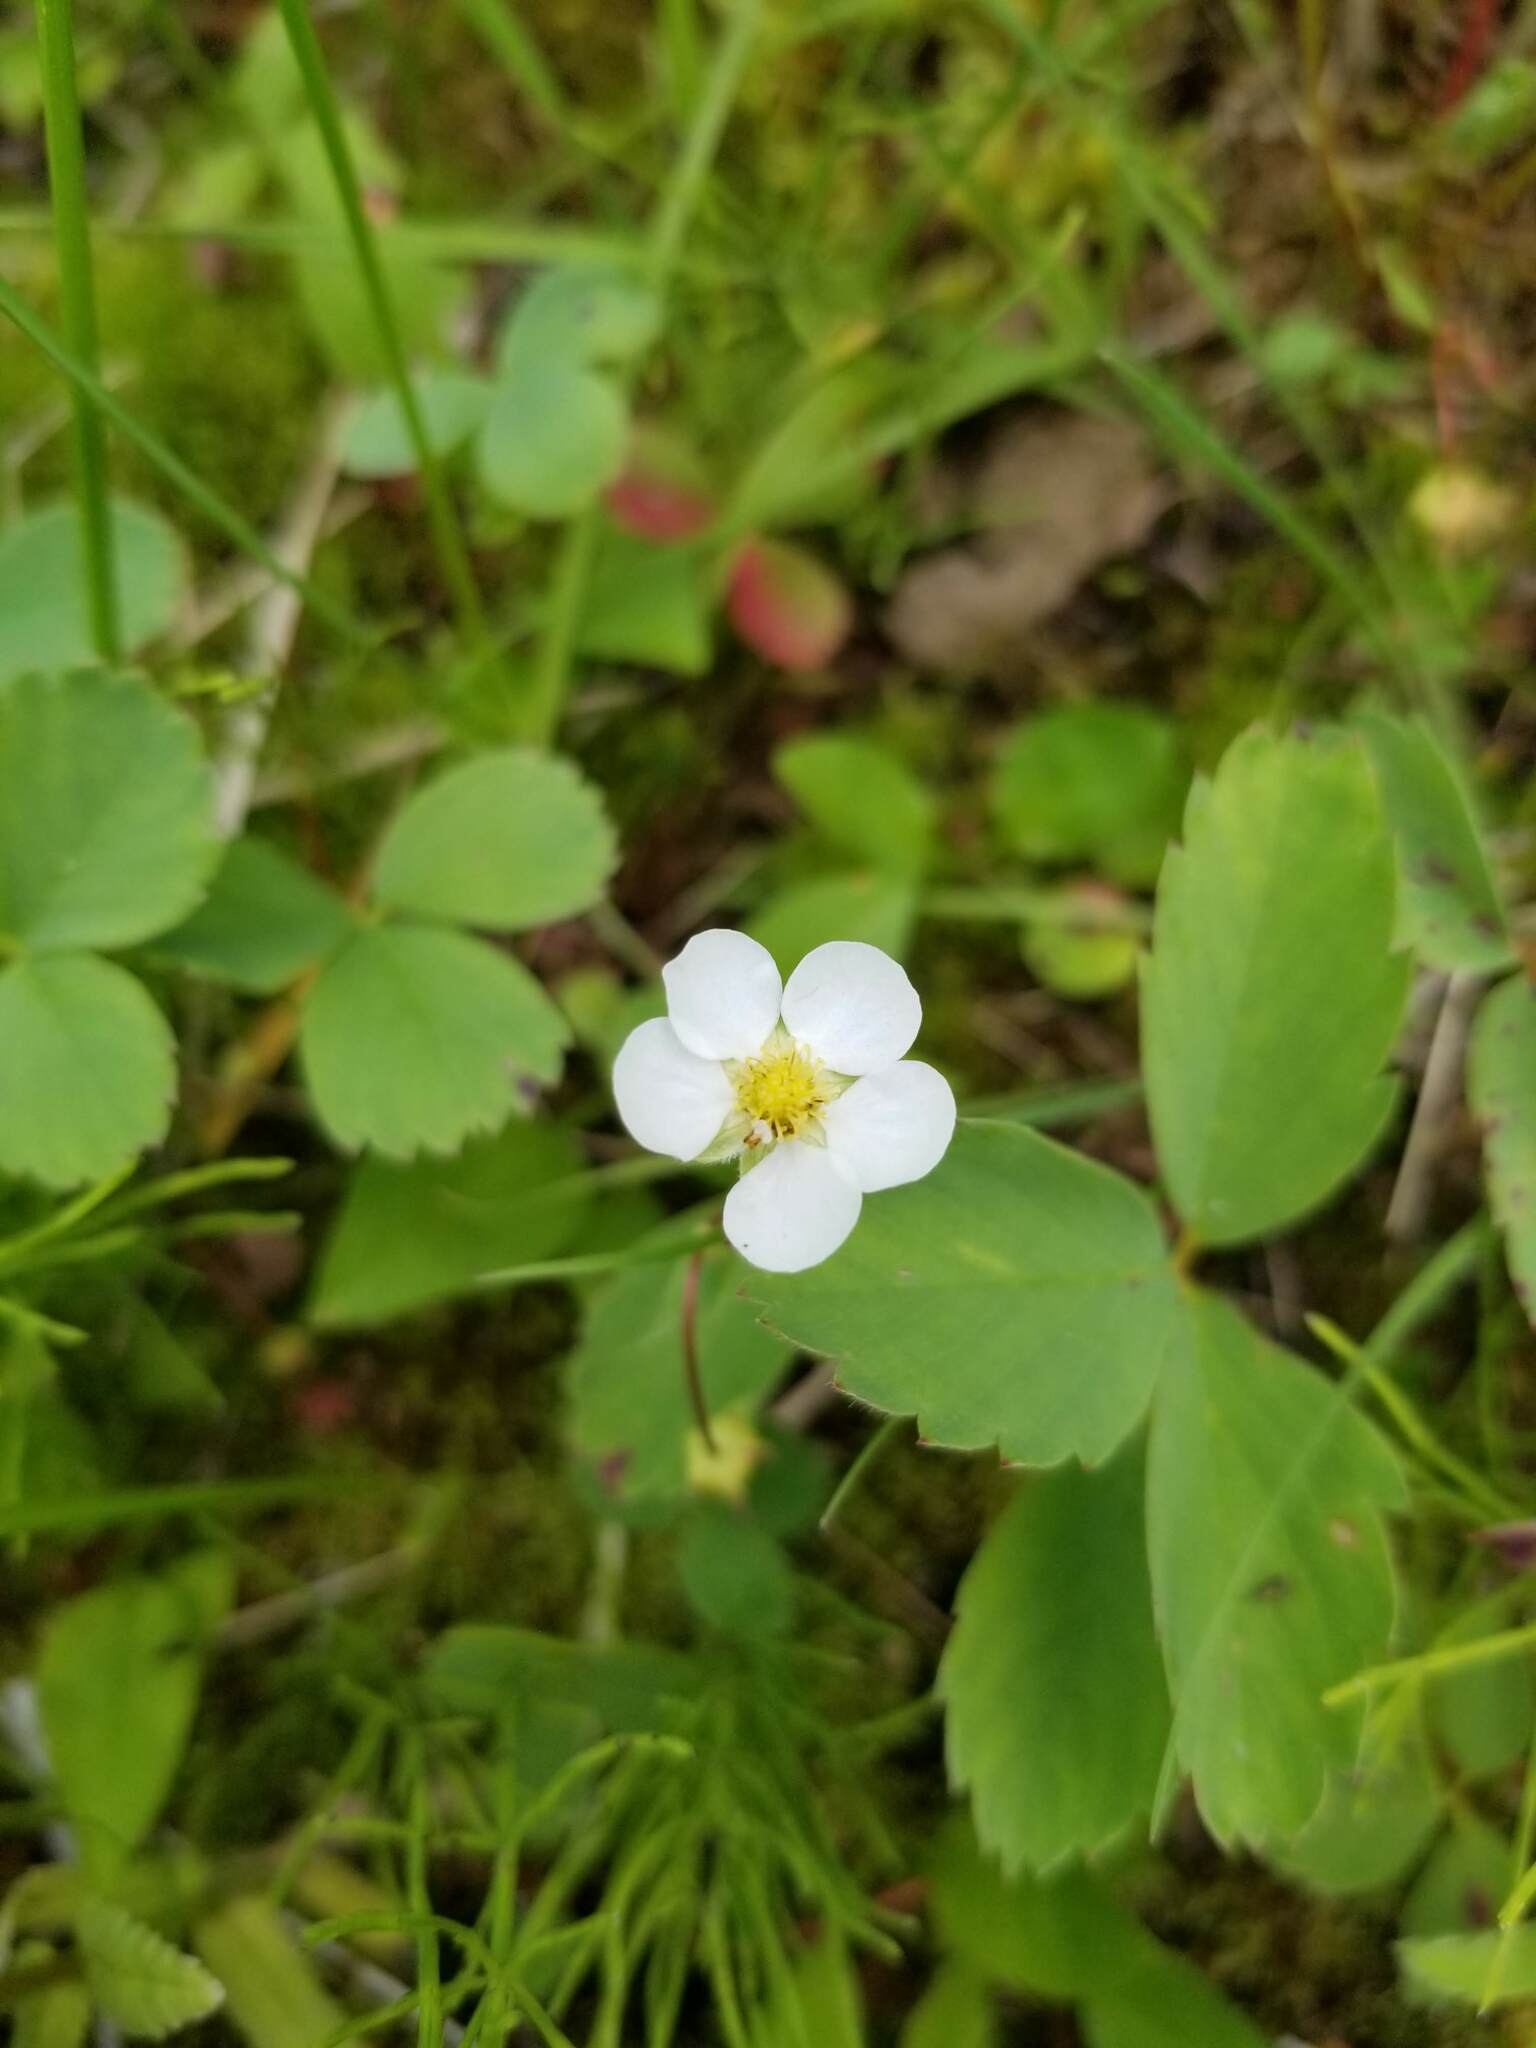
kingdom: Plantae
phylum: Tracheophyta
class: Magnoliopsida
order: Rosales
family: Rosaceae
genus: Fragaria
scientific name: Fragaria virginiana
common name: Thickleaved wild strawberry
